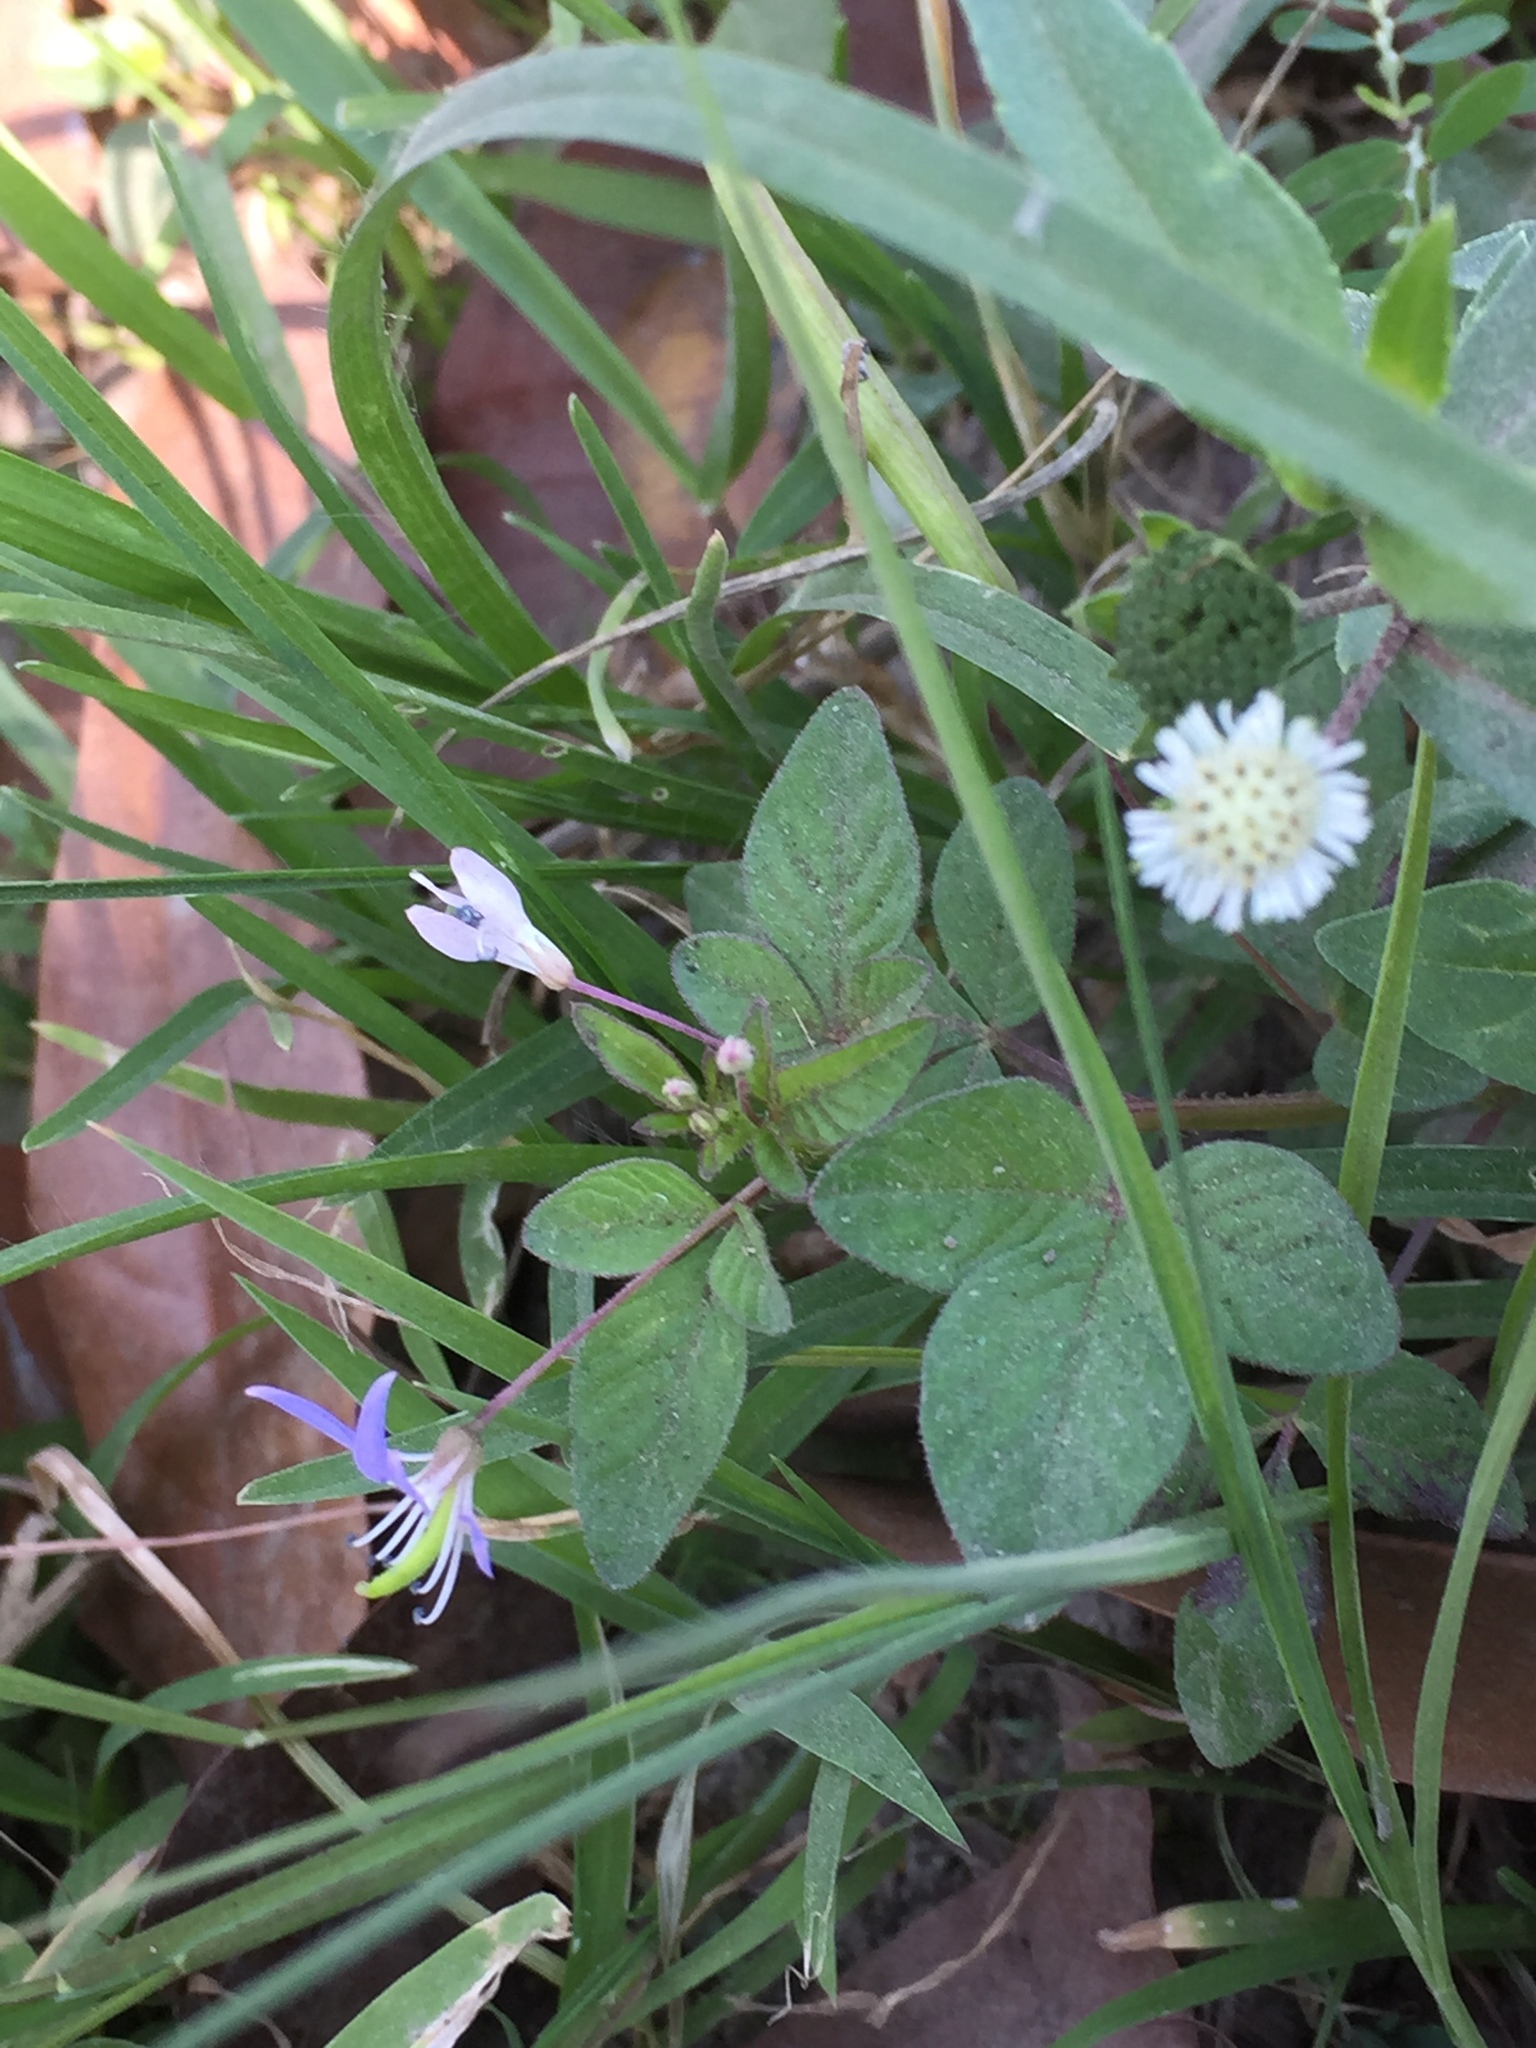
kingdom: Plantae
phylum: Tracheophyta
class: Magnoliopsida
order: Brassicales
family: Cleomaceae
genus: Sieruela
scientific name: Sieruela rutidosperma
